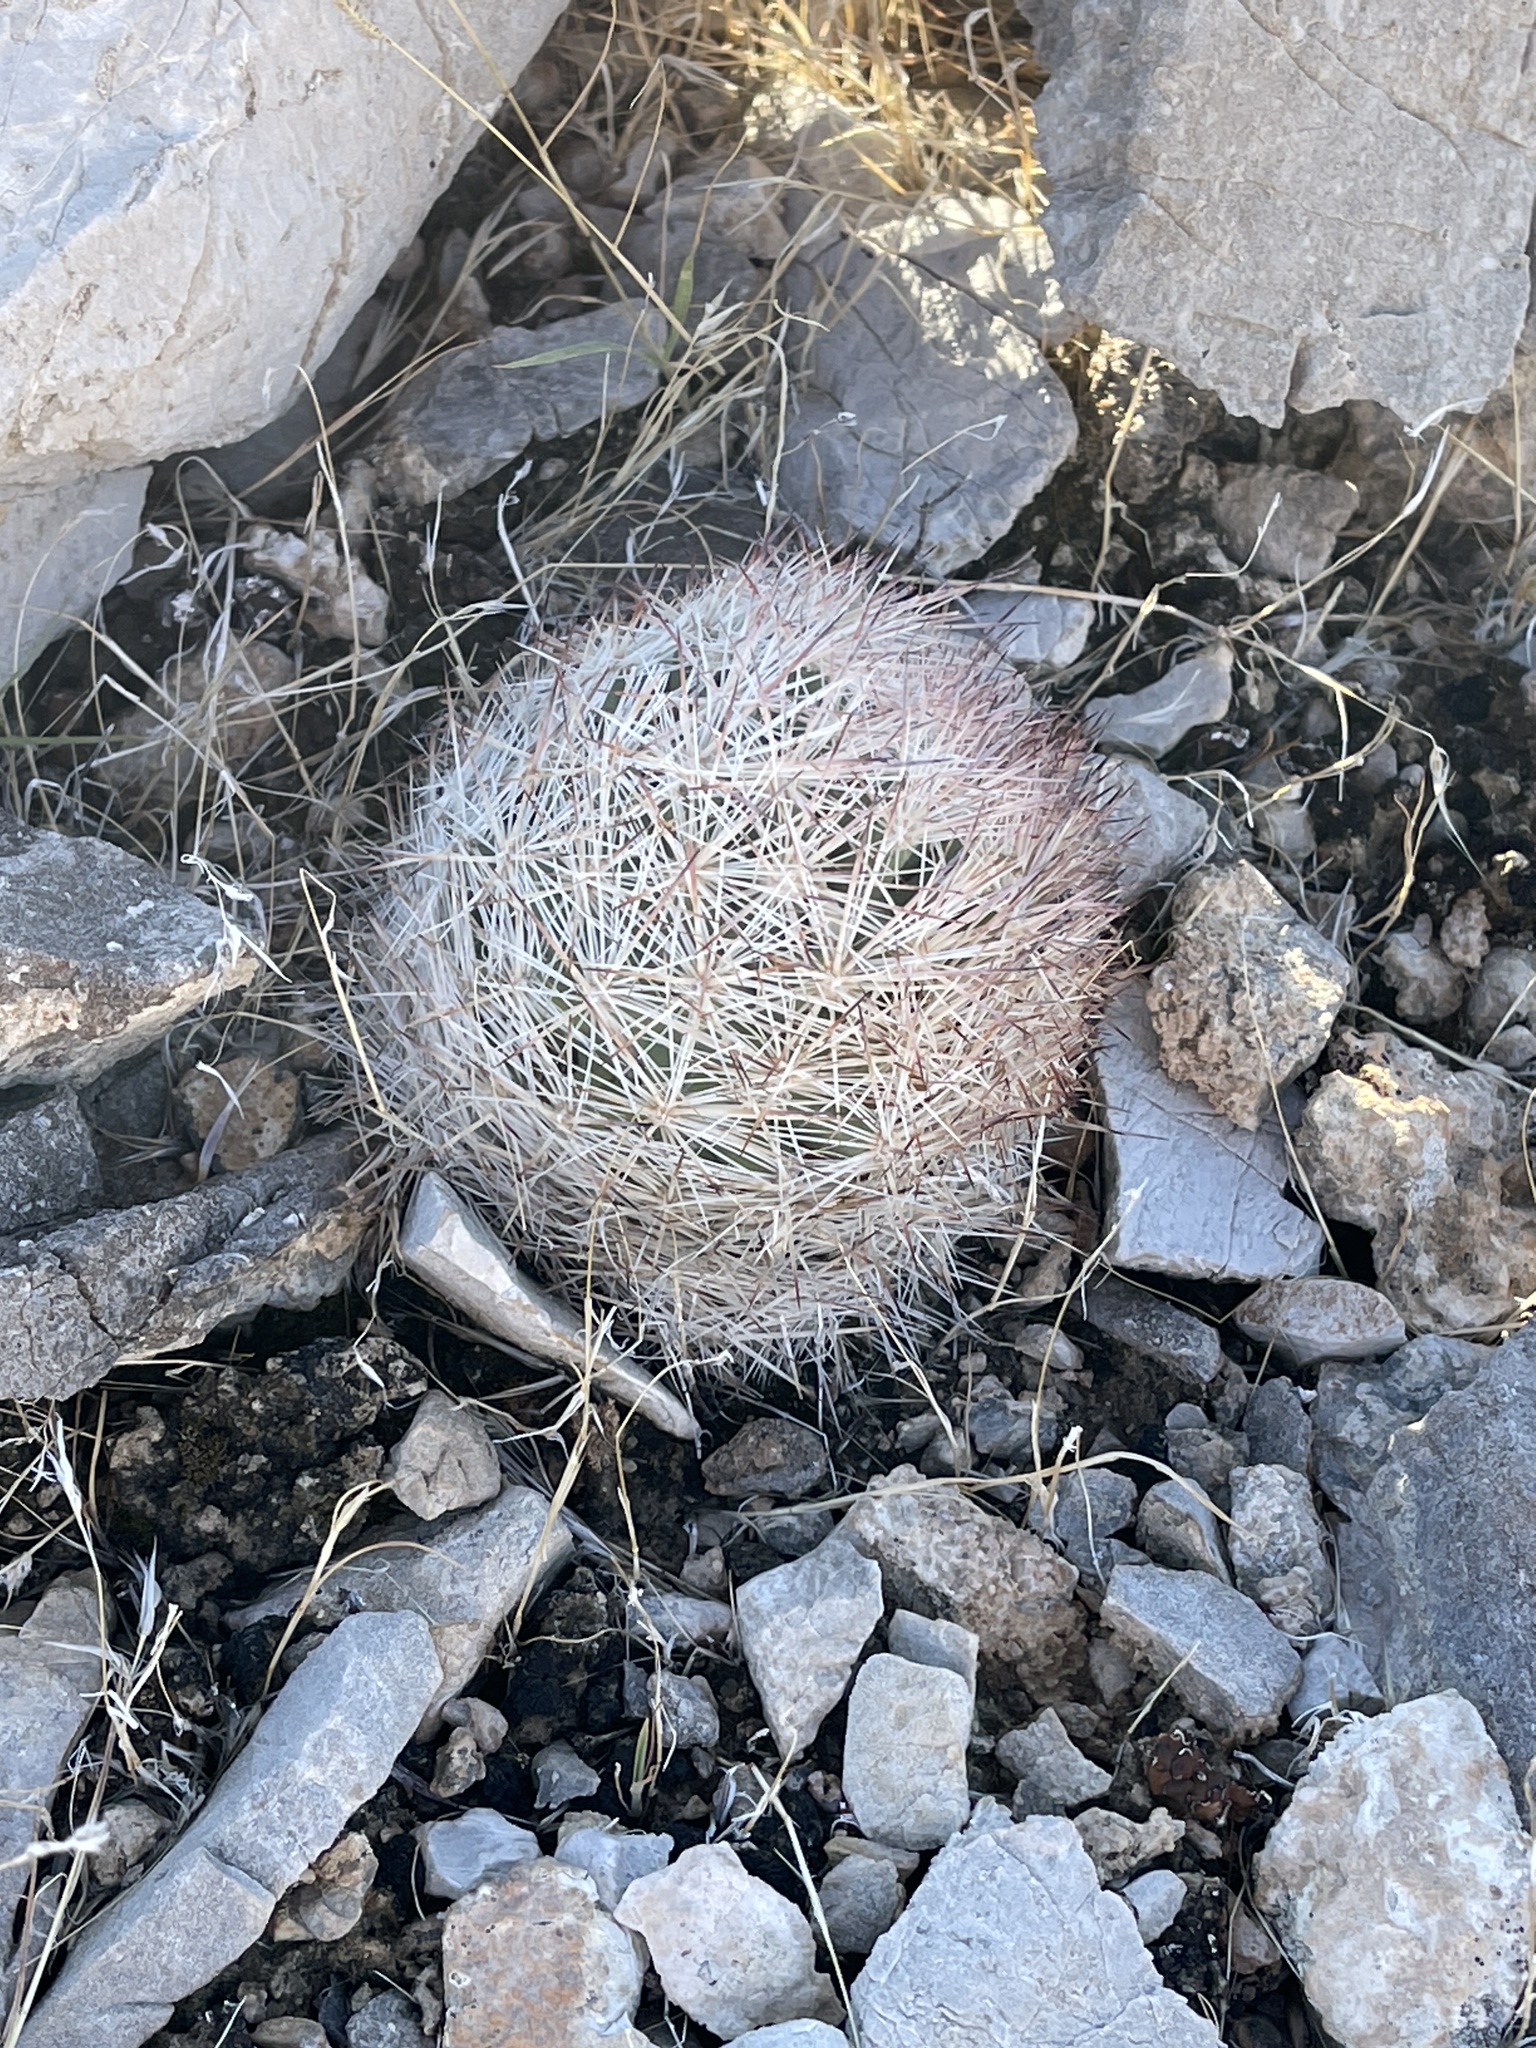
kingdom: Plantae
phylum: Tracheophyta
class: Magnoliopsida
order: Caryophyllales
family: Cactaceae
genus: Pelecyphora
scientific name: Pelecyphora dasyacantha
